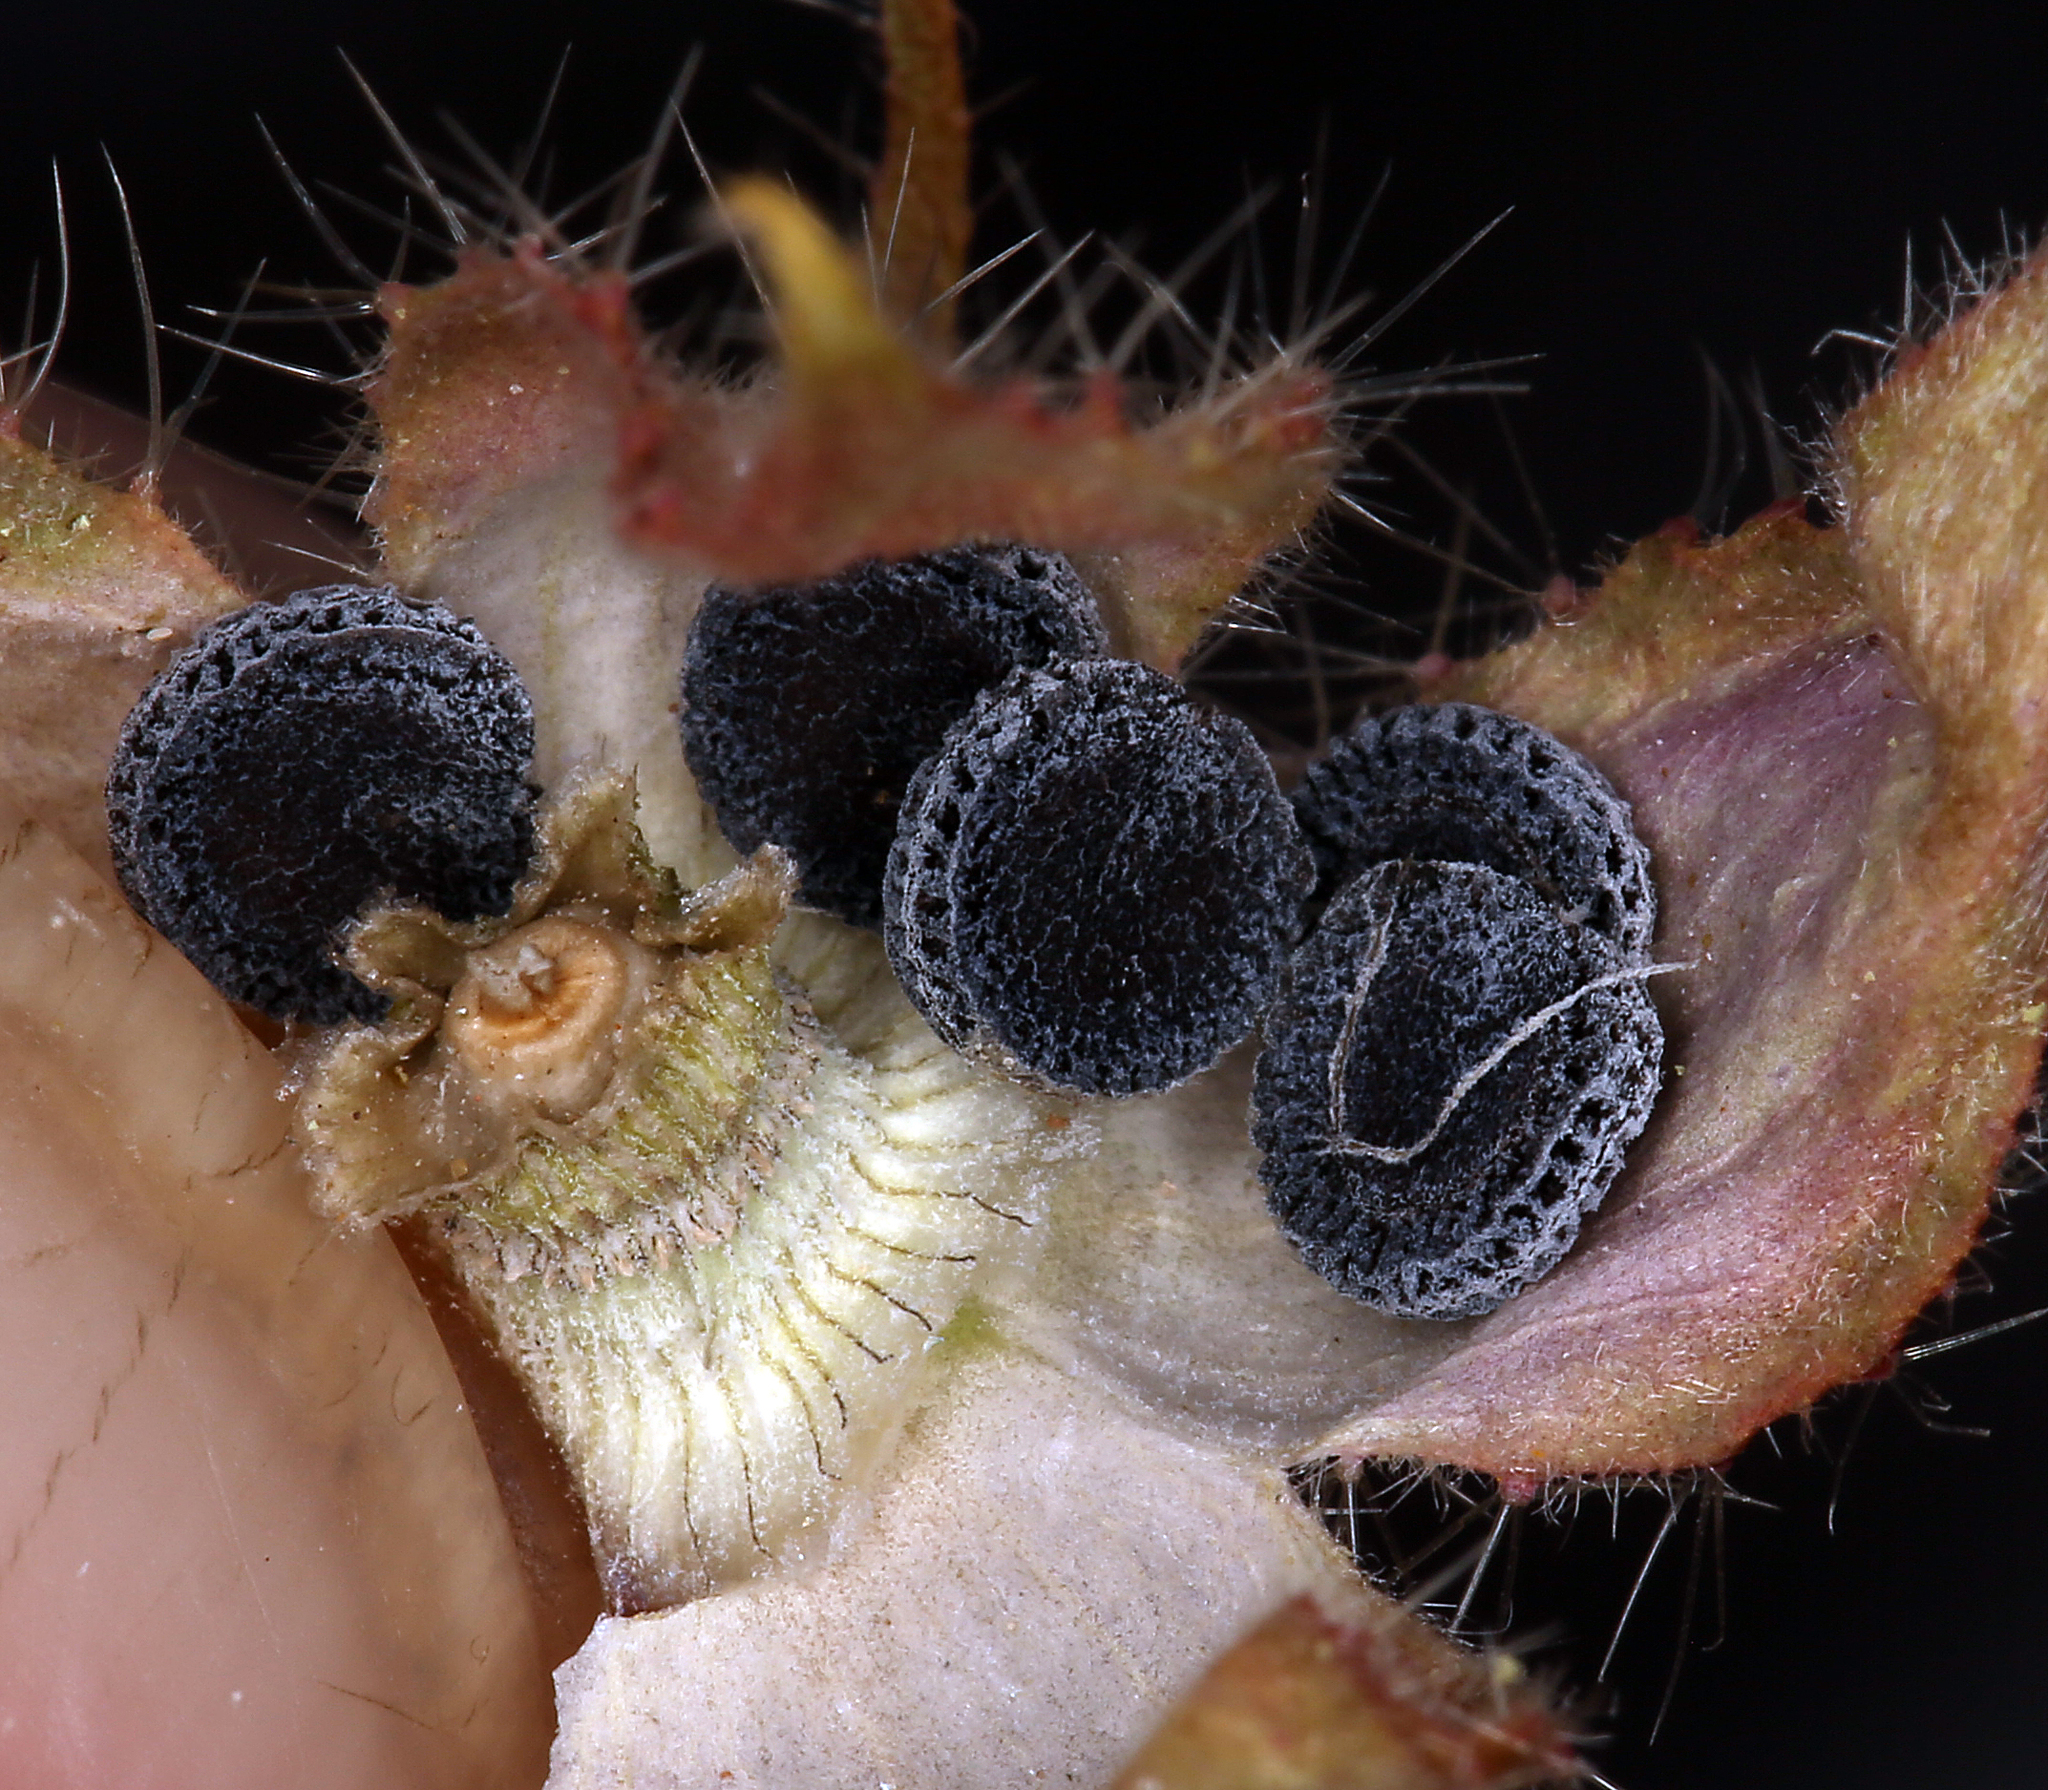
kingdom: Plantae
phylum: Tracheophyta
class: Magnoliopsida
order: Malvales
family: Malvaceae
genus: Eremalche
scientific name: Eremalche rotundifolia
